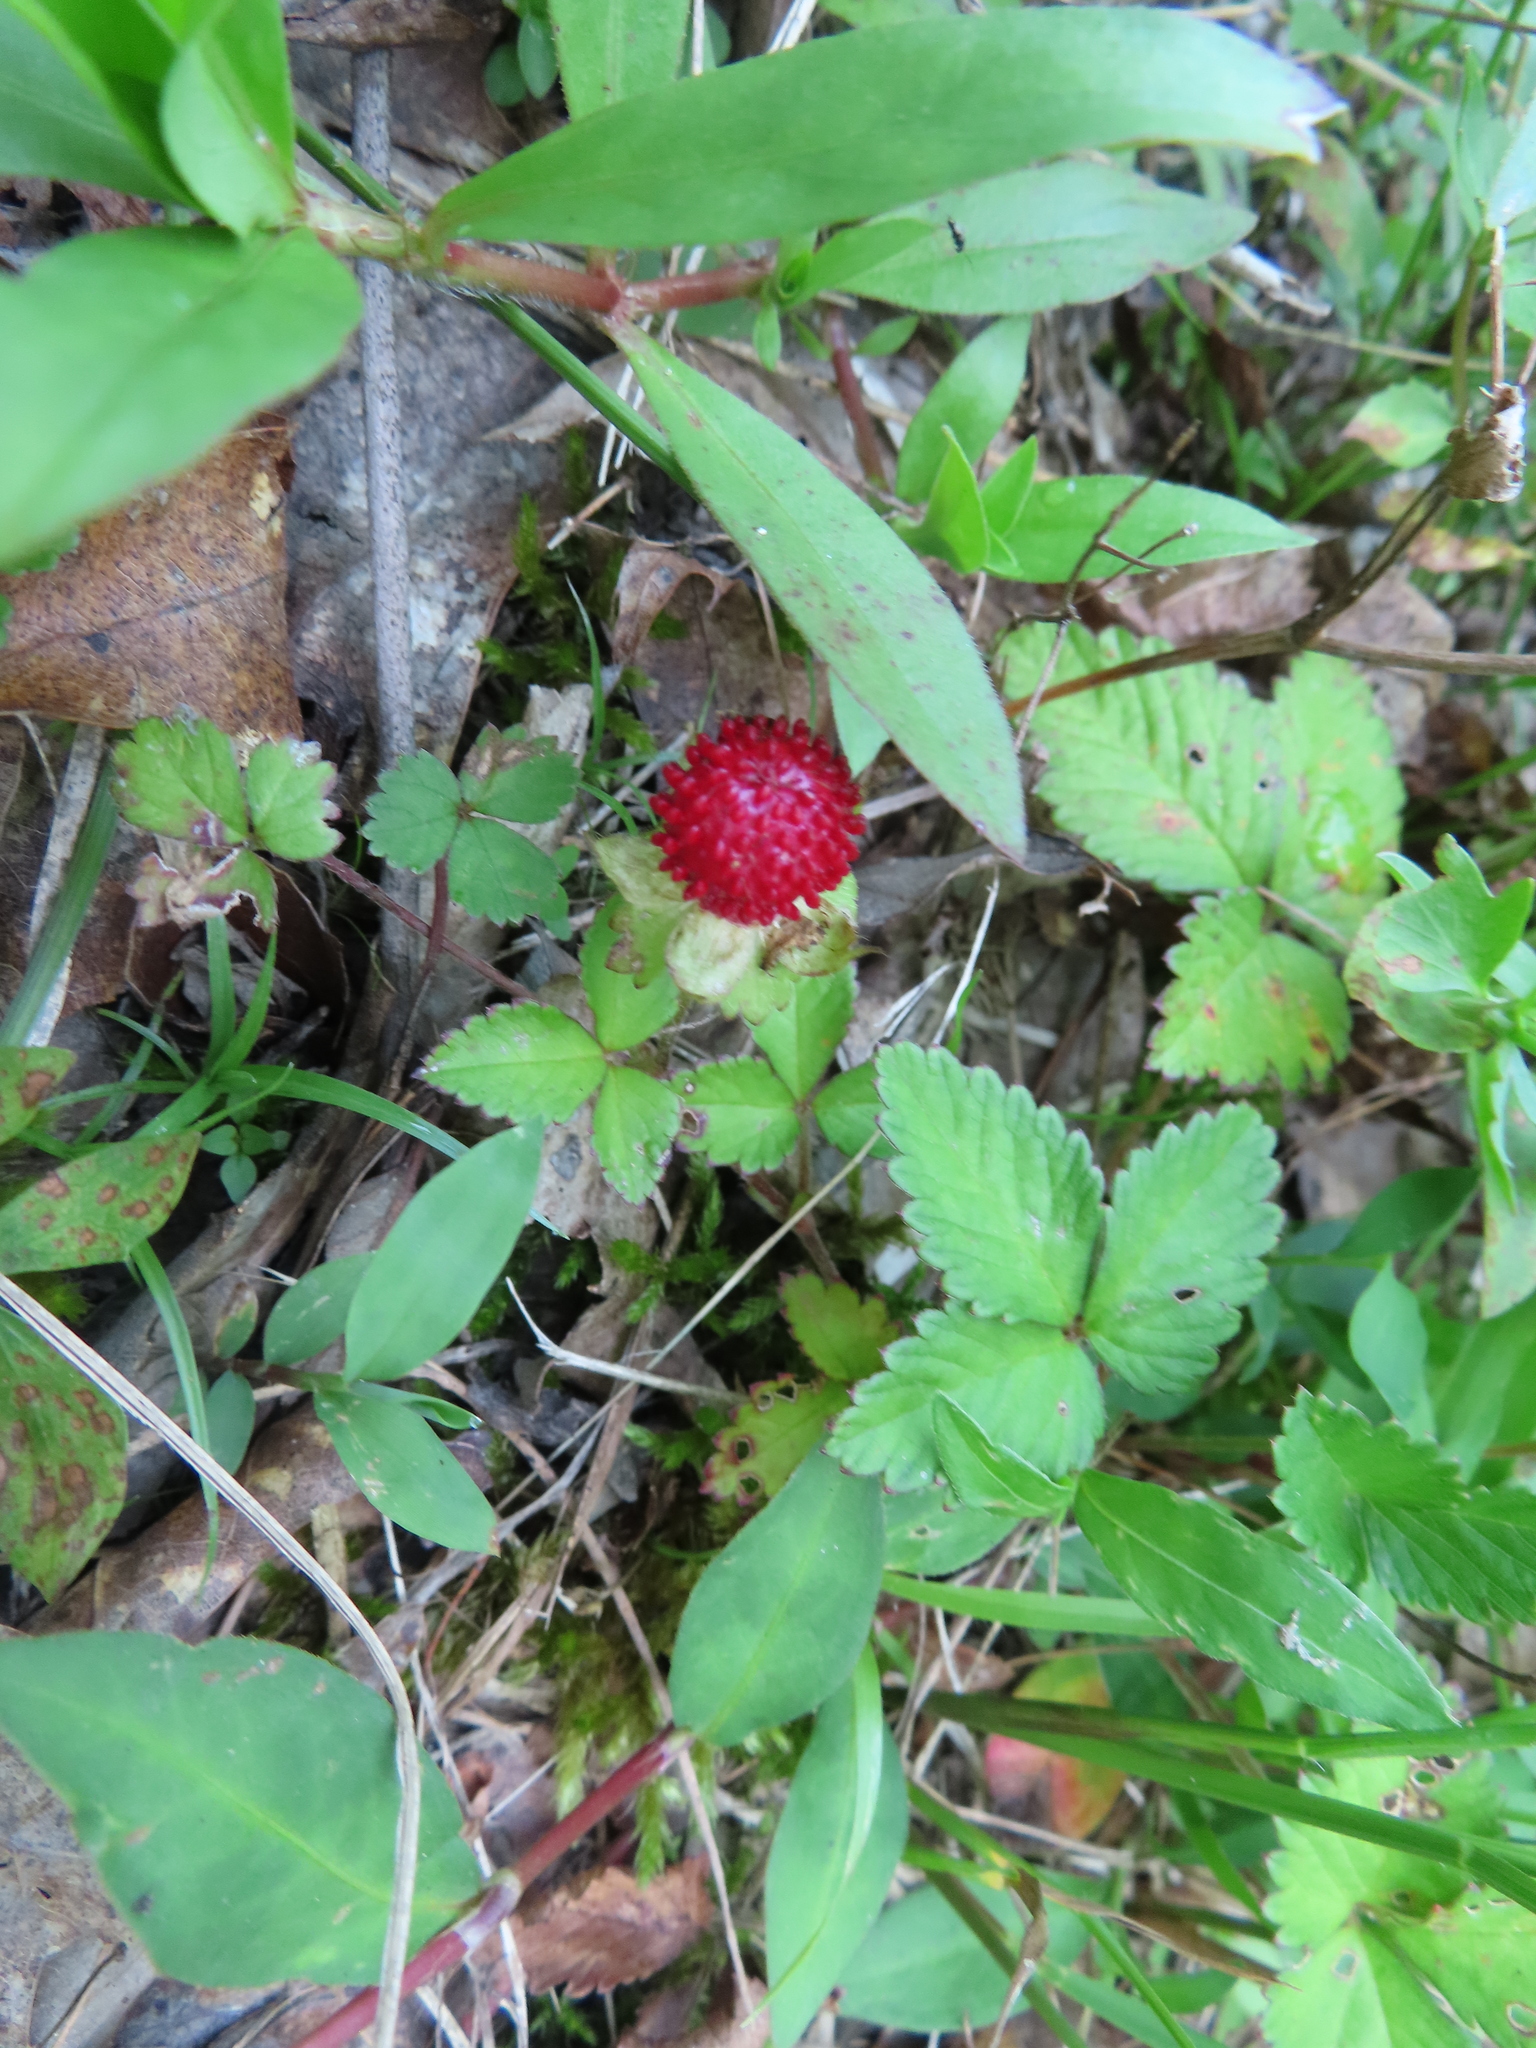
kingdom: Plantae
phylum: Tracheophyta
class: Magnoliopsida
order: Rosales
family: Rosaceae
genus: Potentilla
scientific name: Potentilla indica
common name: Yellow-flowered strawberry
